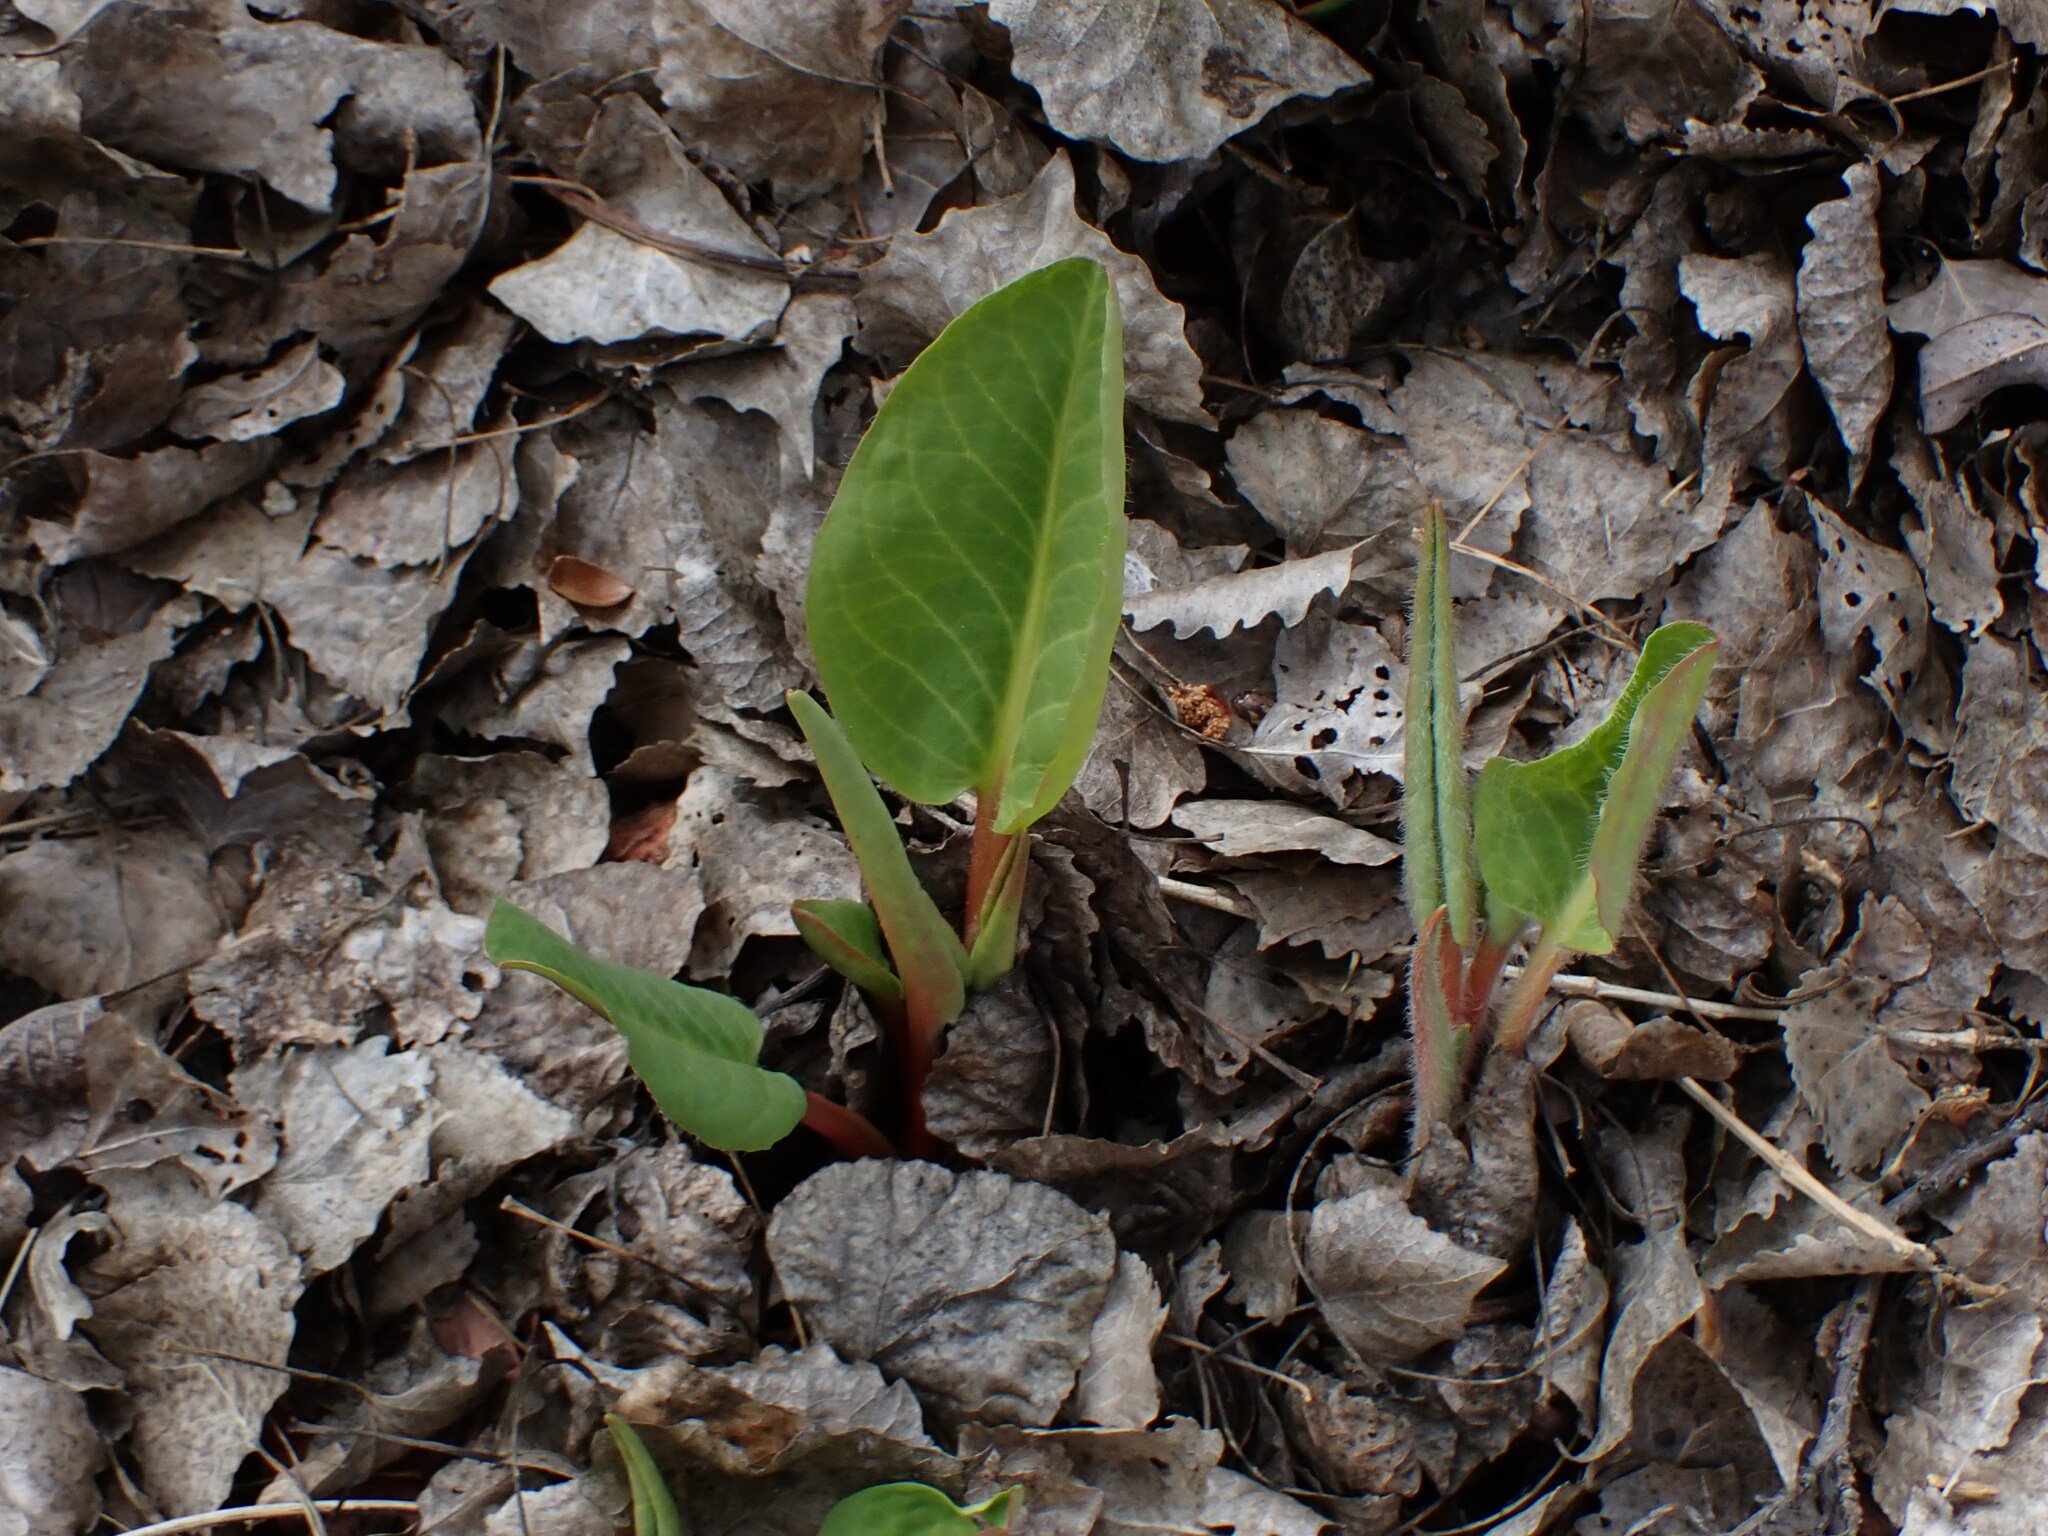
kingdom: Plantae
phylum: Tracheophyta
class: Magnoliopsida
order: Piperales
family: Saururaceae
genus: Anemopsis
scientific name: Anemopsis californica
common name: Apache-beads
